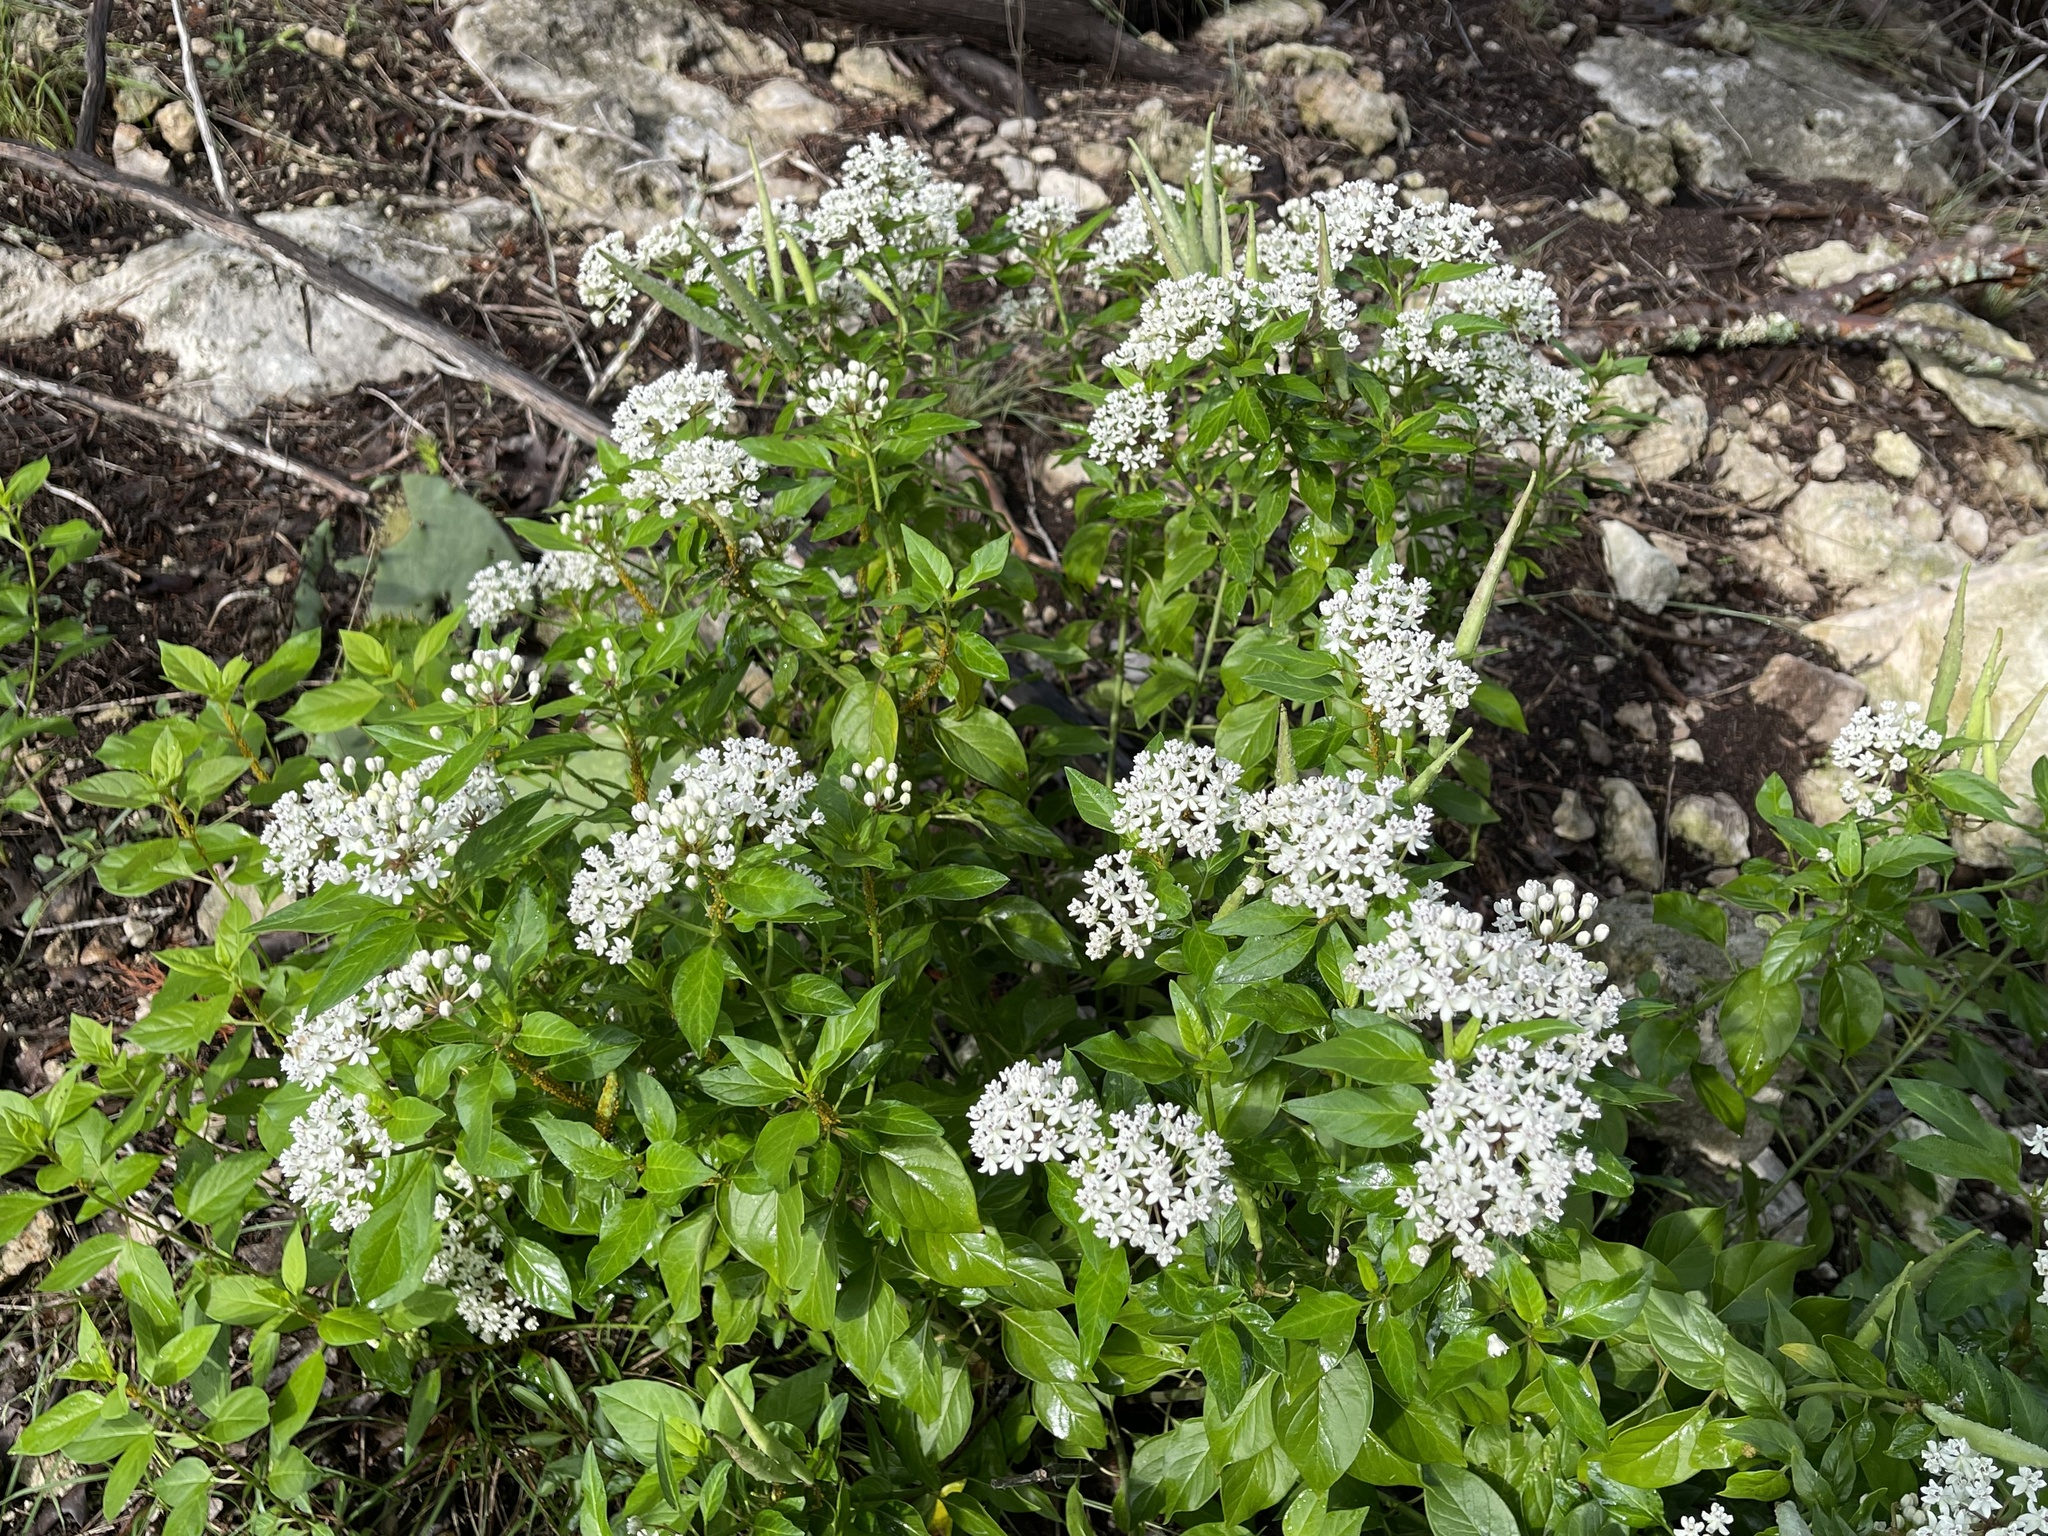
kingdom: Plantae
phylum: Tracheophyta
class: Magnoliopsida
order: Gentianales
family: Apocynaceae
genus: Asclepias
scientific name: Asclepias texana
